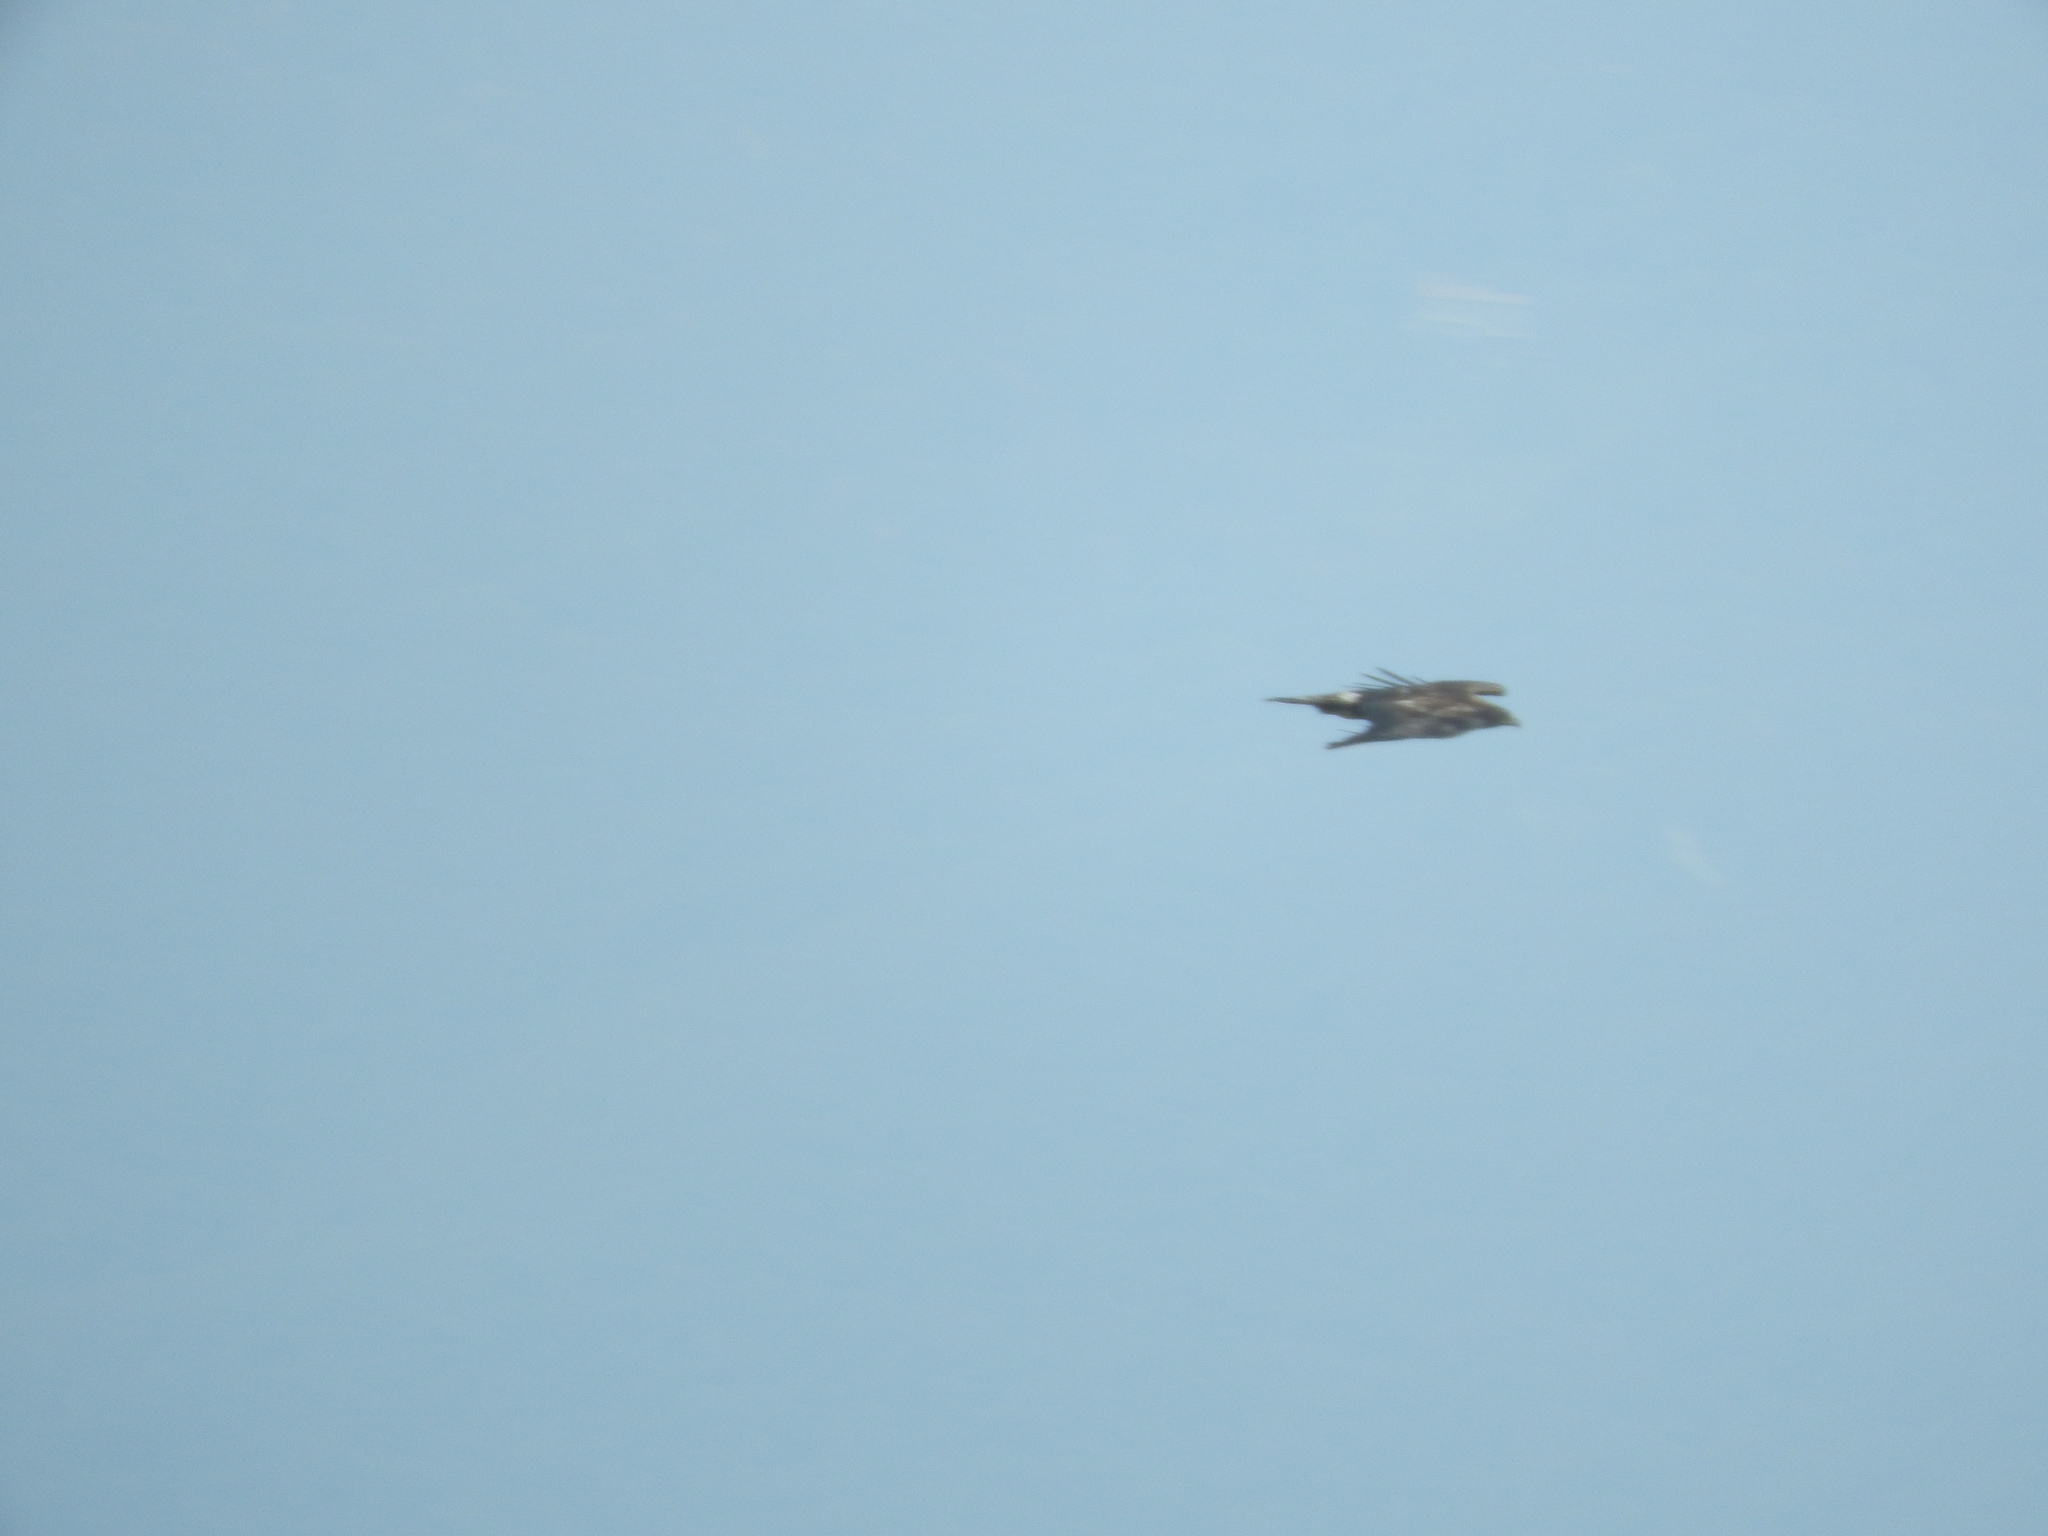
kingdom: Animalia
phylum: Chordata
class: Aves
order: Accipitriformes
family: Accipitridae
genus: Aquila
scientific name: Aquila chrysaetos
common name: Golden eagle
